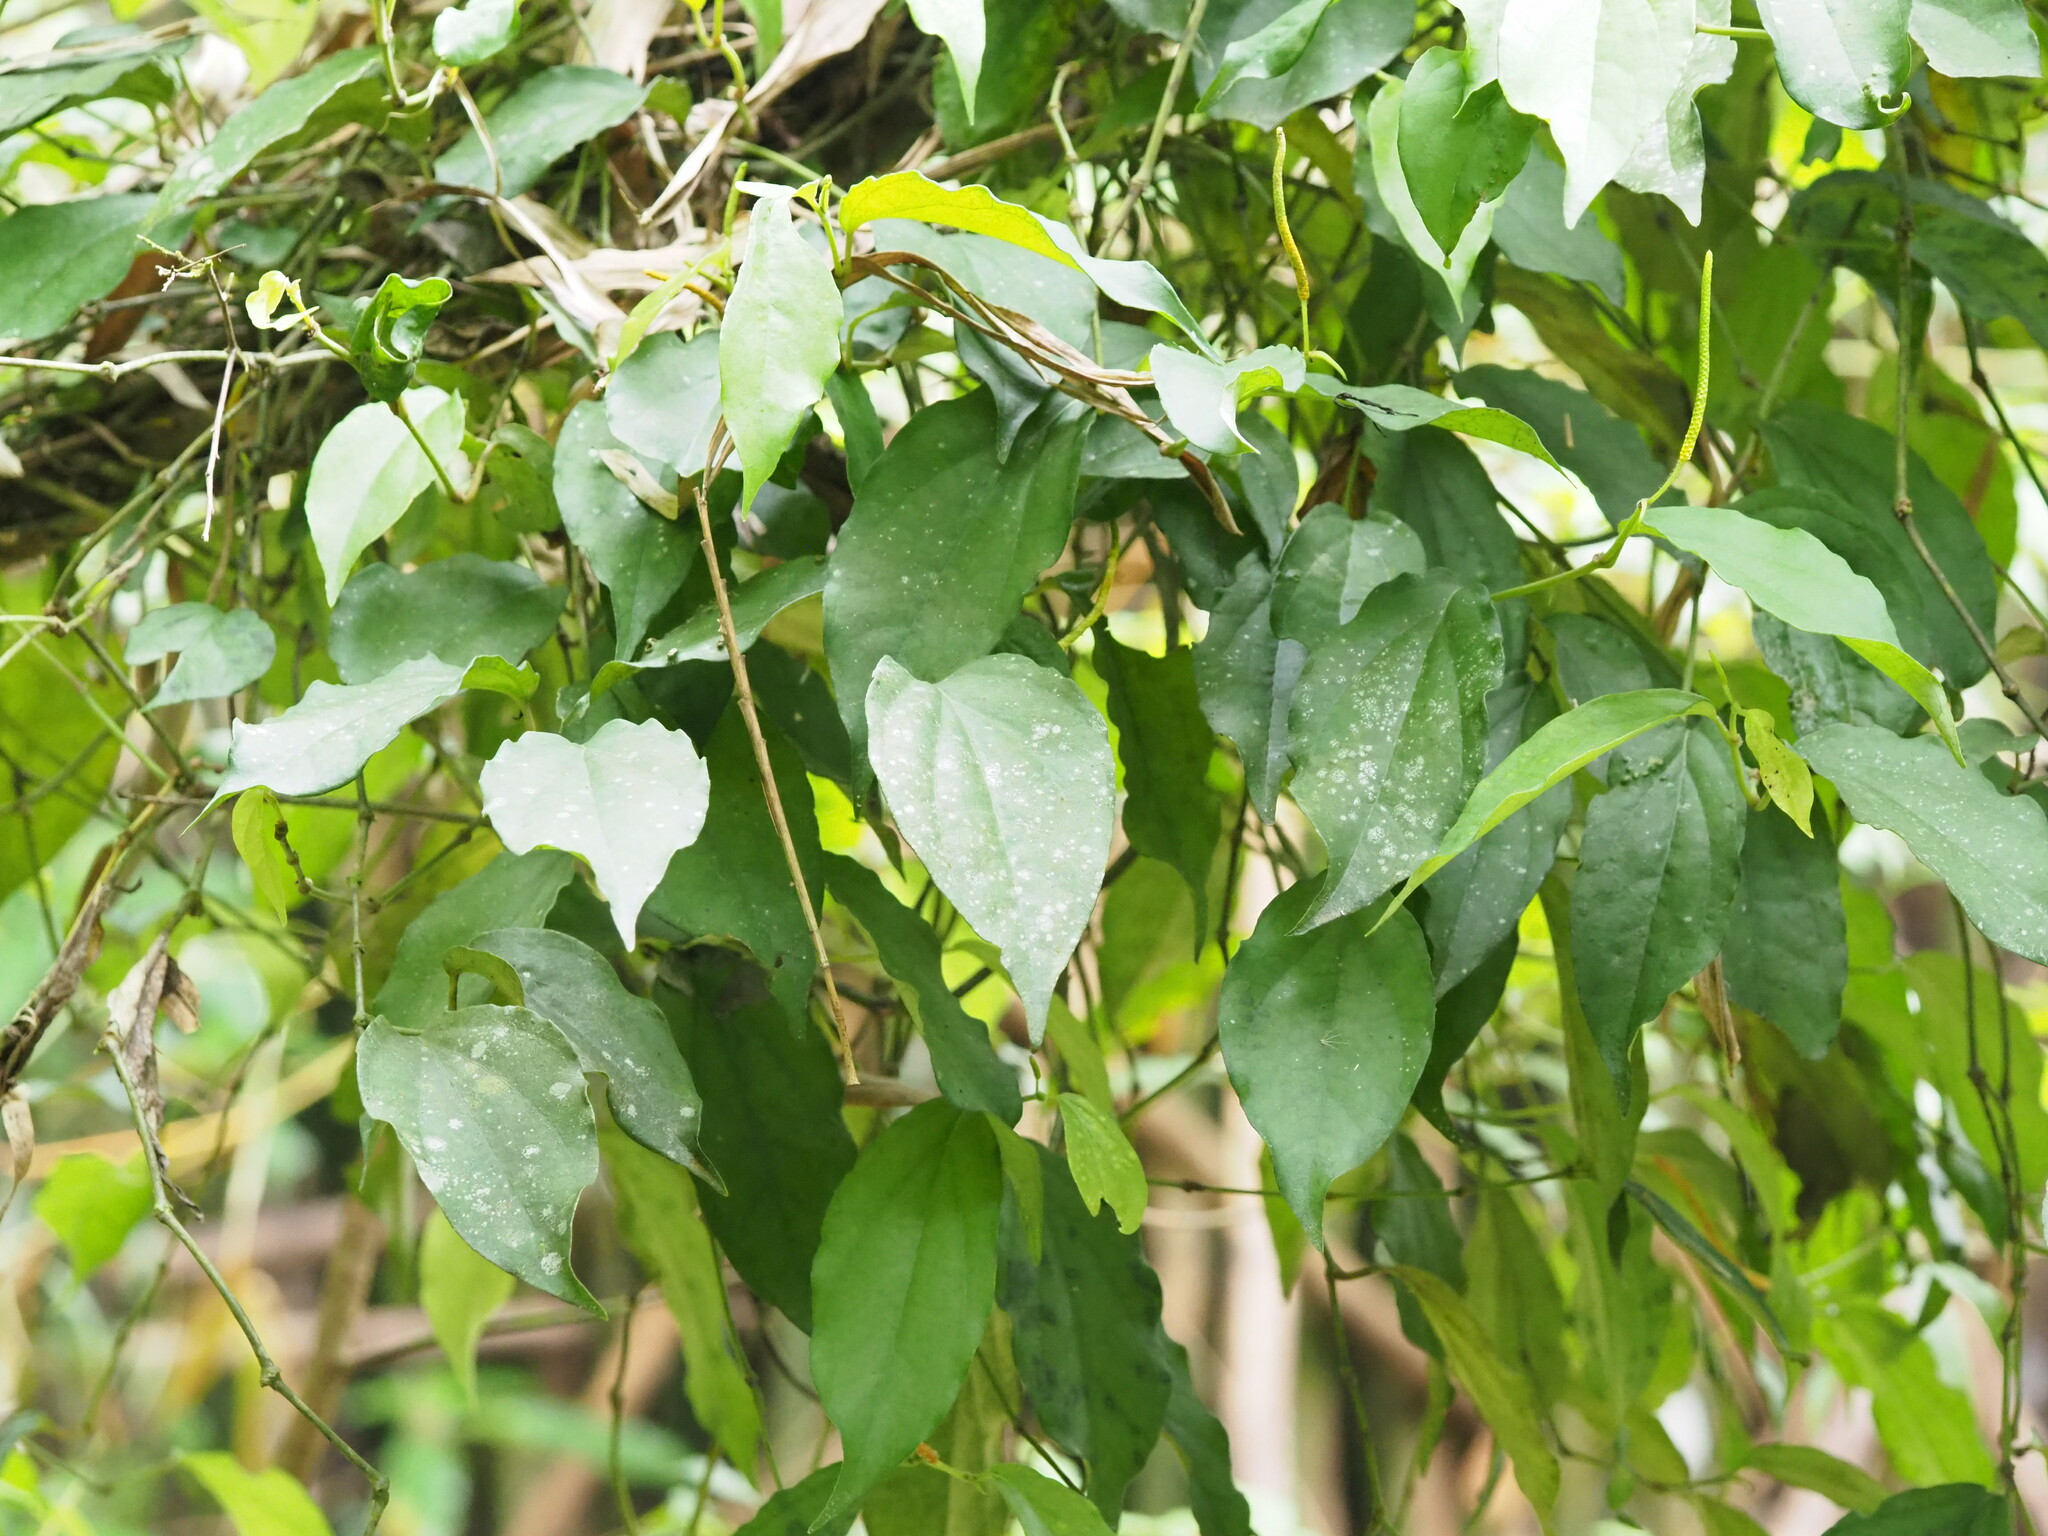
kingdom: Plantae
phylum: Tracheophyta
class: Magnoliopsida
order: Piperales
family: Piperaceae
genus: Piper
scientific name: Piper kadsura
